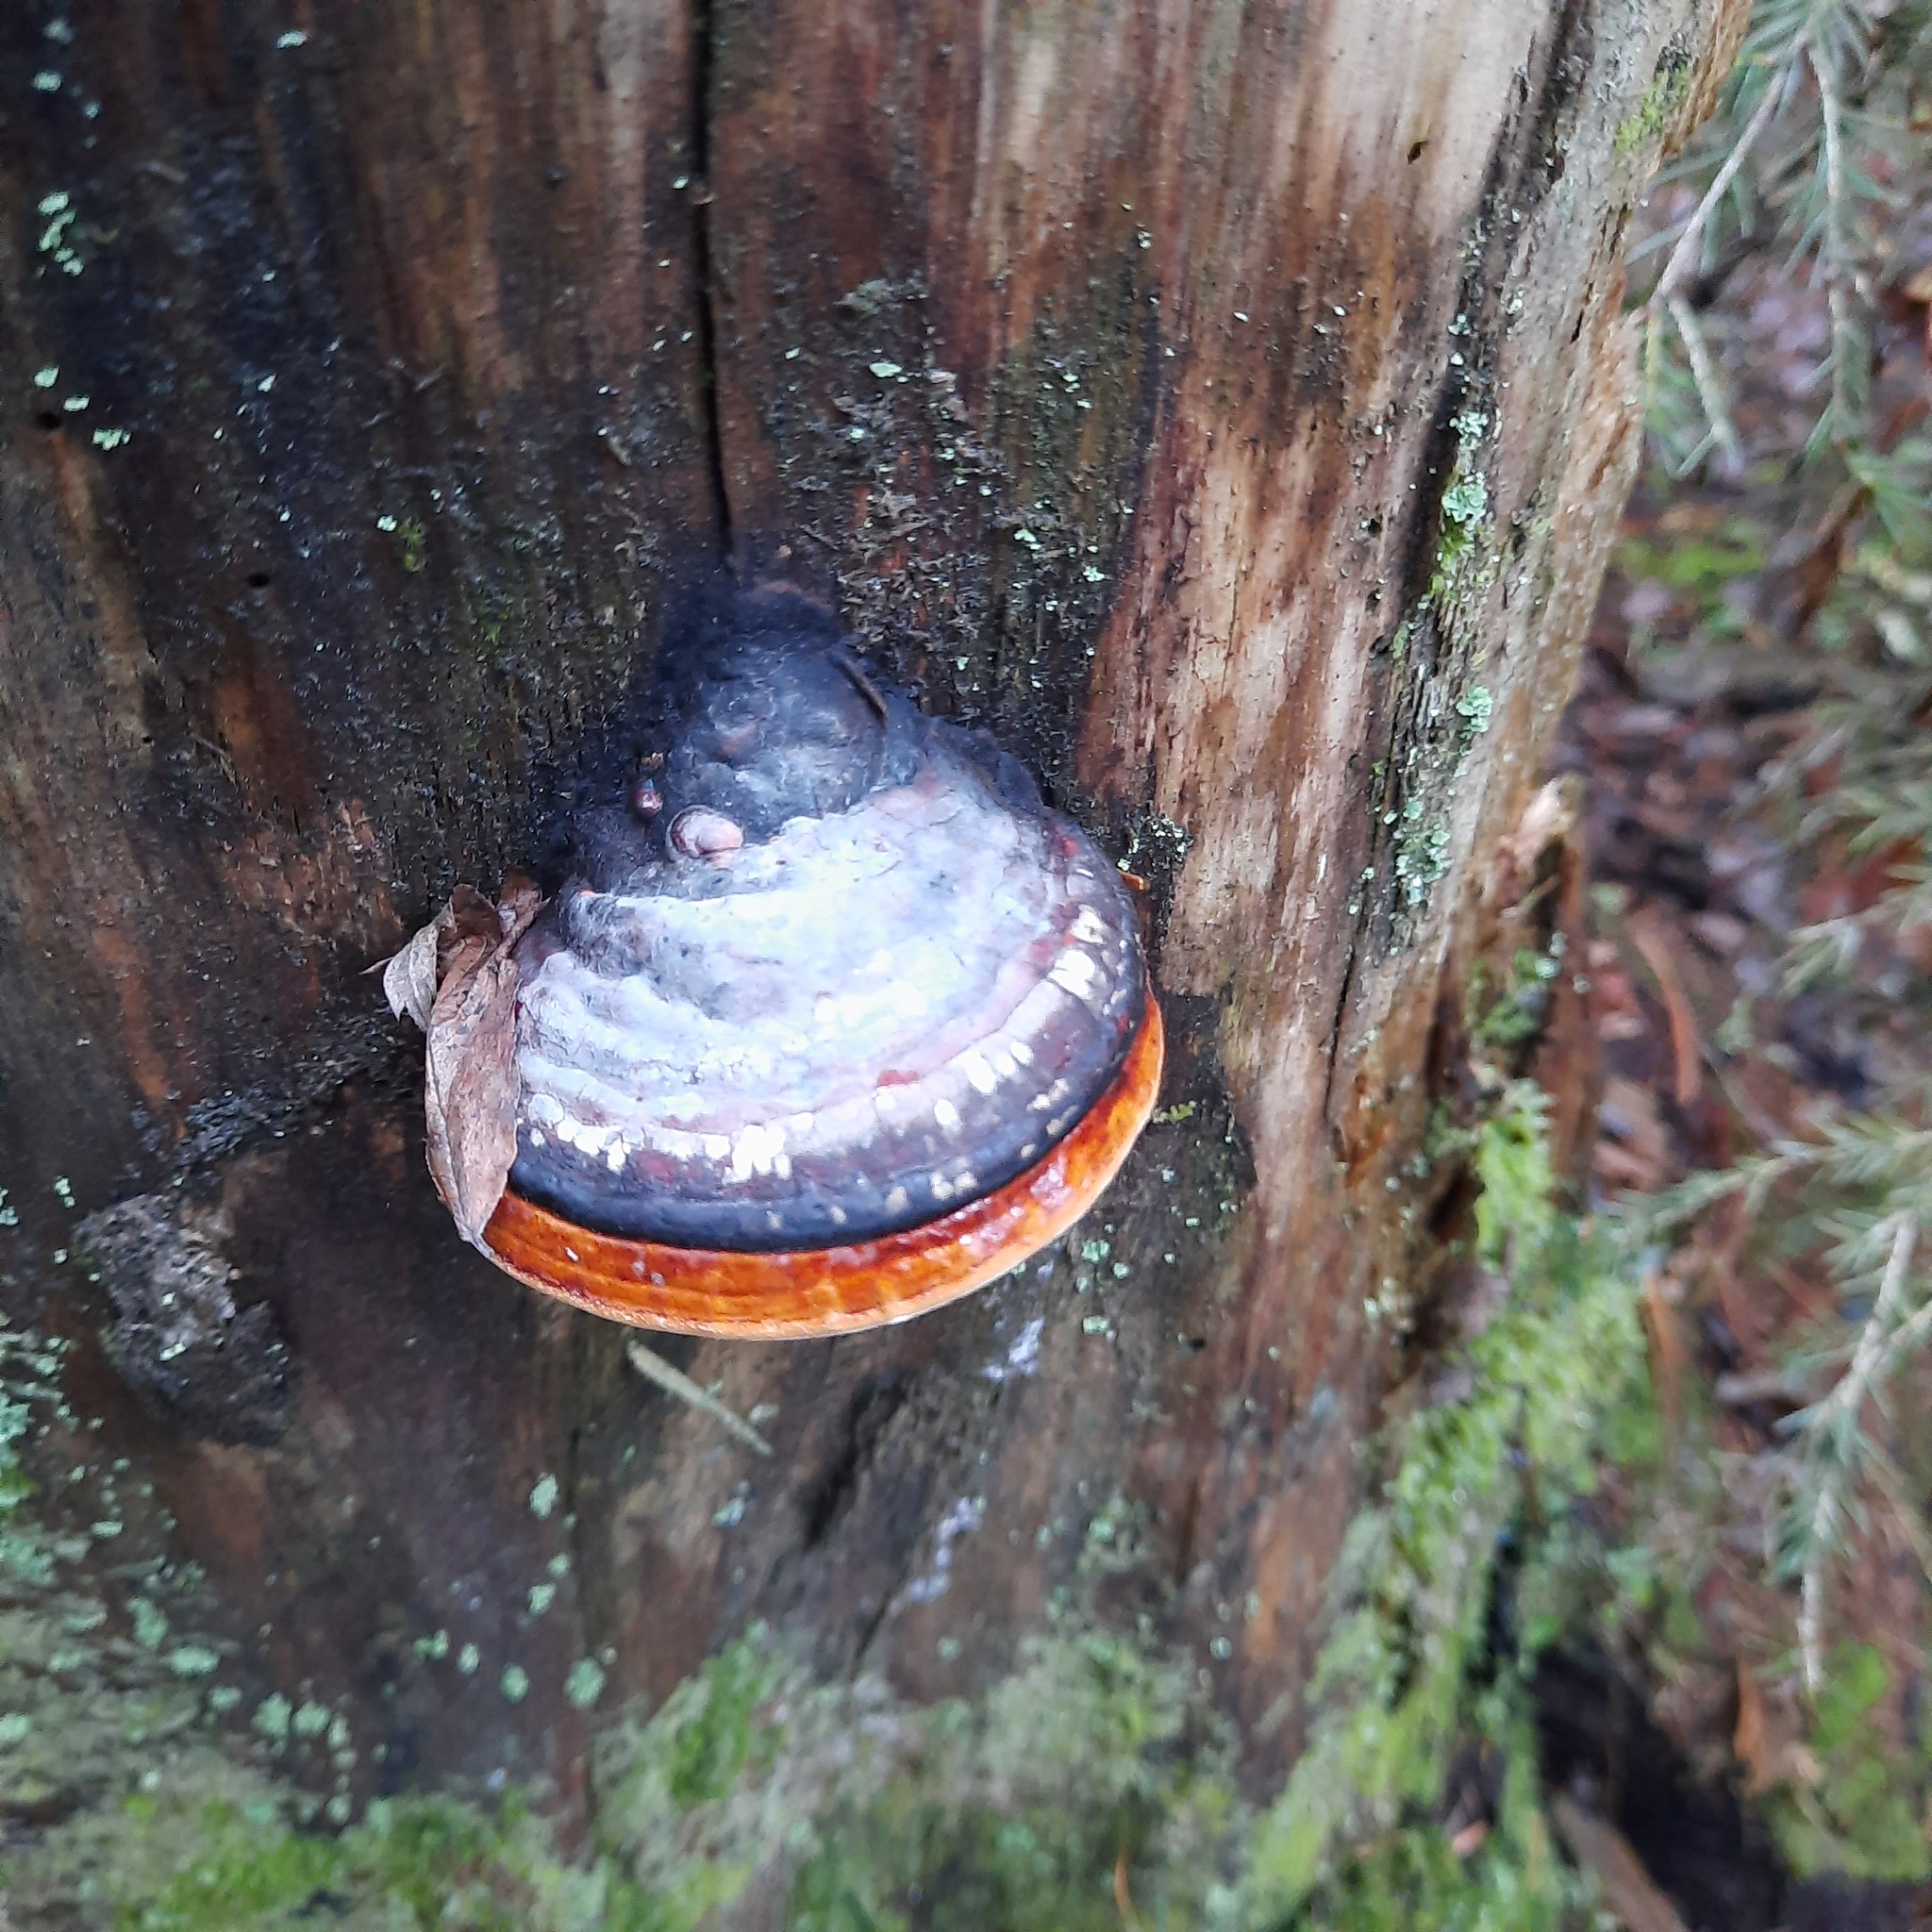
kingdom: Fungi
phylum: Basidiomycota
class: Agaricomycetes
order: Polyporales
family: Fomitopsidaceae
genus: Fomitopsis
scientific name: Fomitopsis pinicola
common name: Red-belted bracket
